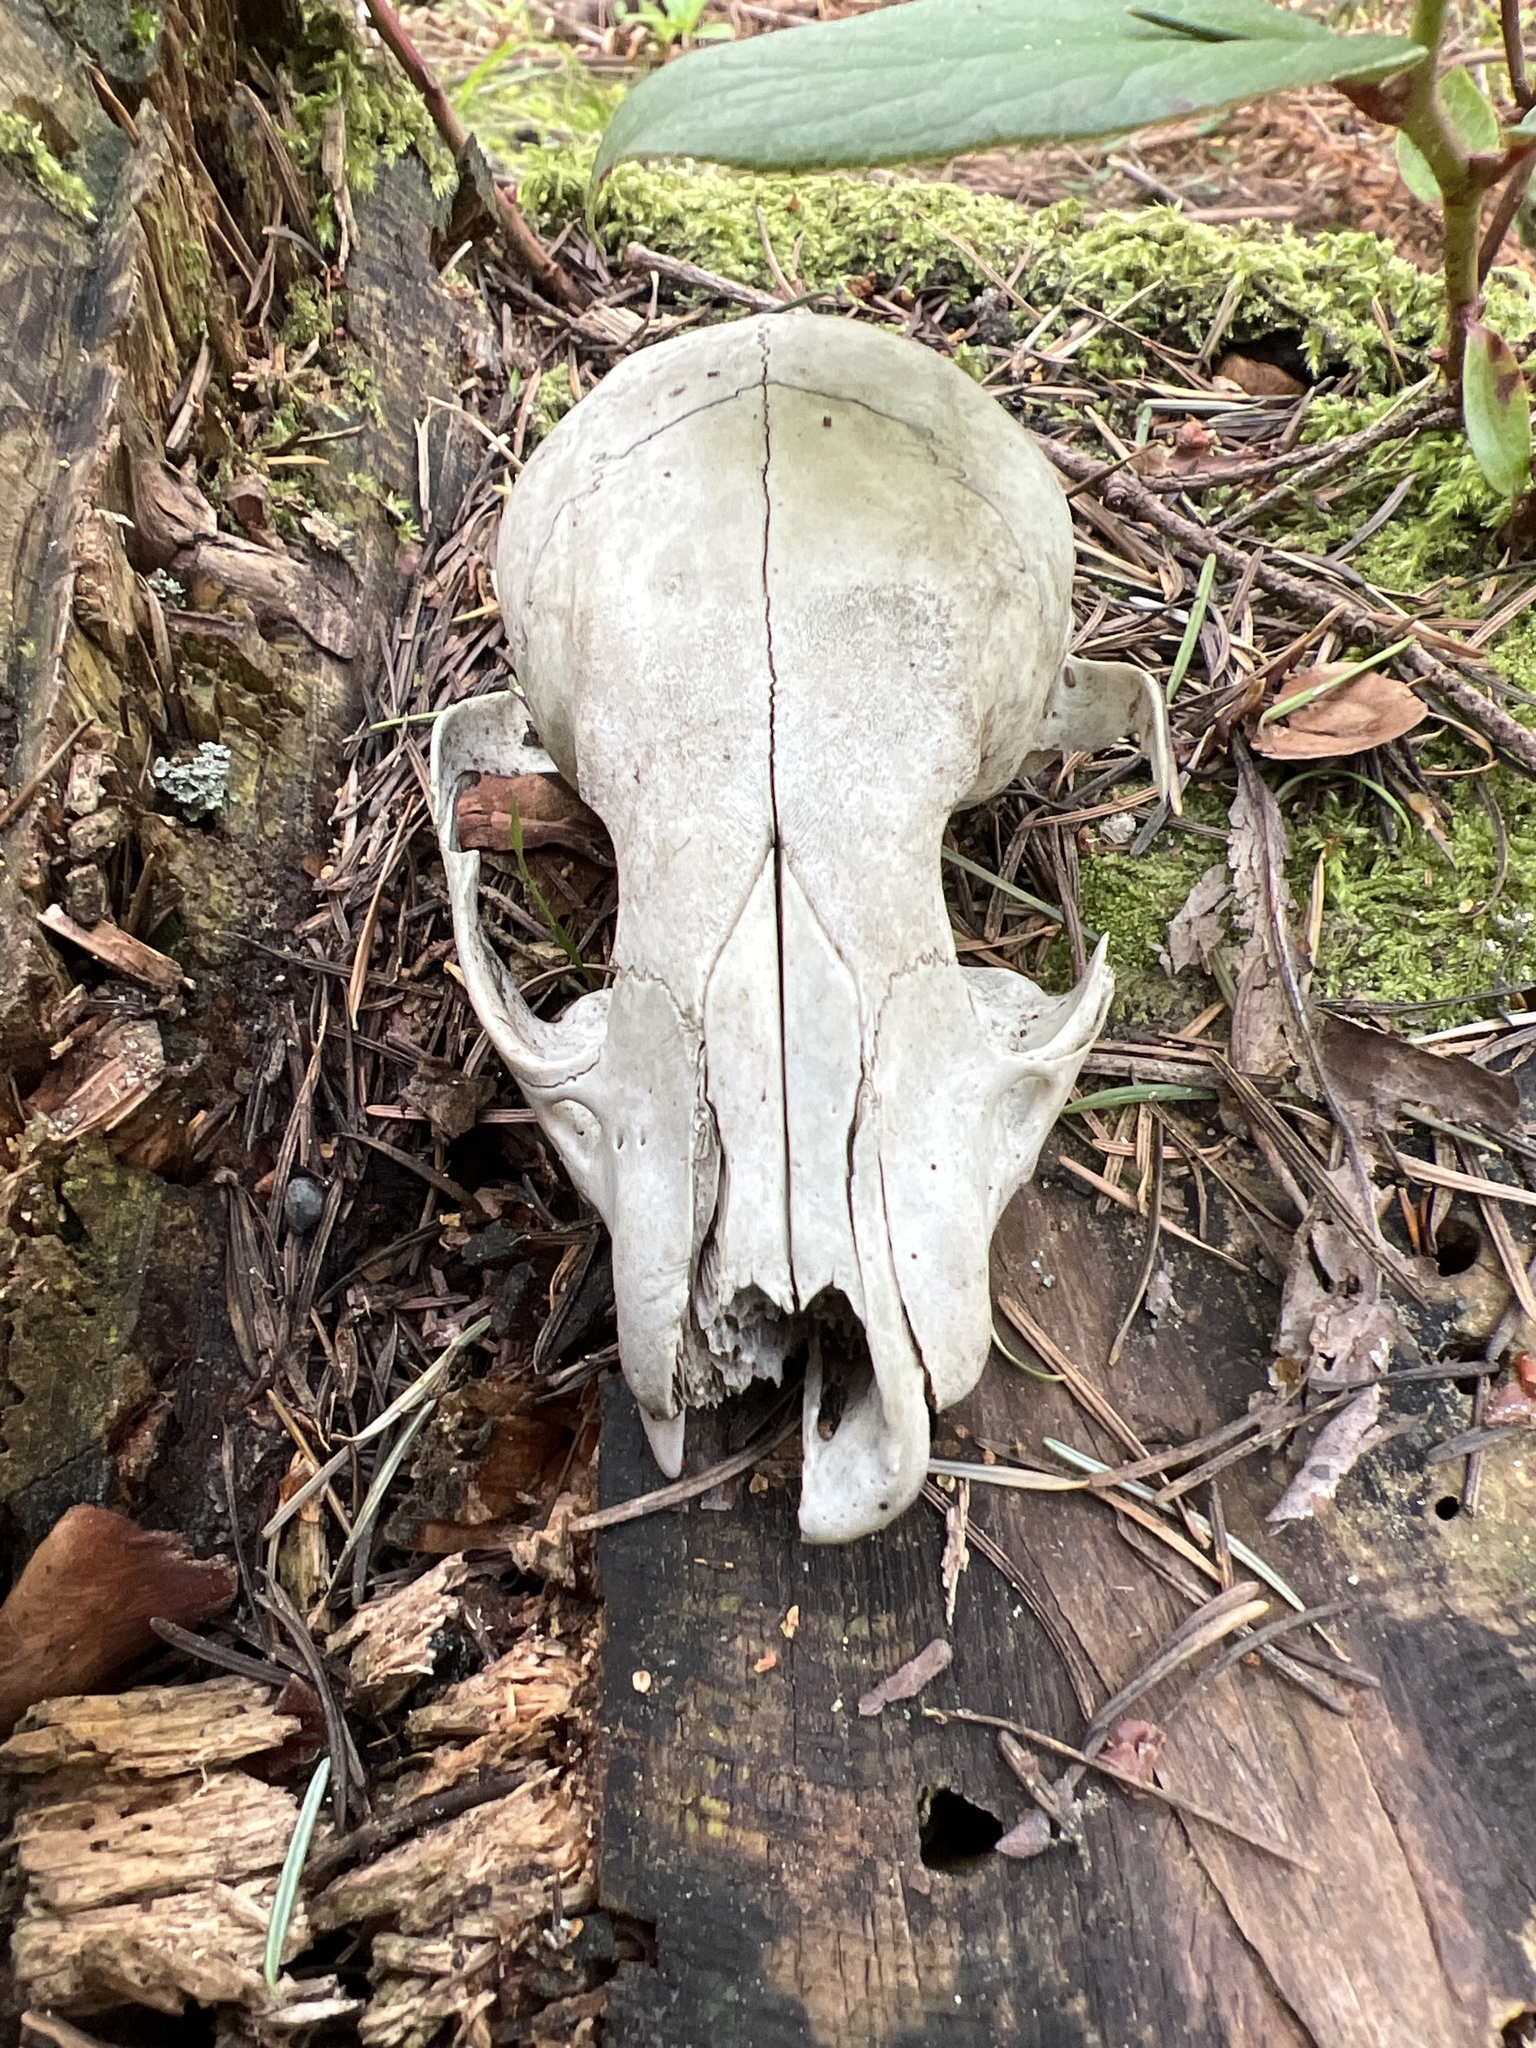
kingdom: Animalia
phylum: Chordata
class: Mammalia
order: Carnivora
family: Procyonidae
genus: Procyon
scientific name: Procyon lotor
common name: Raccoon
